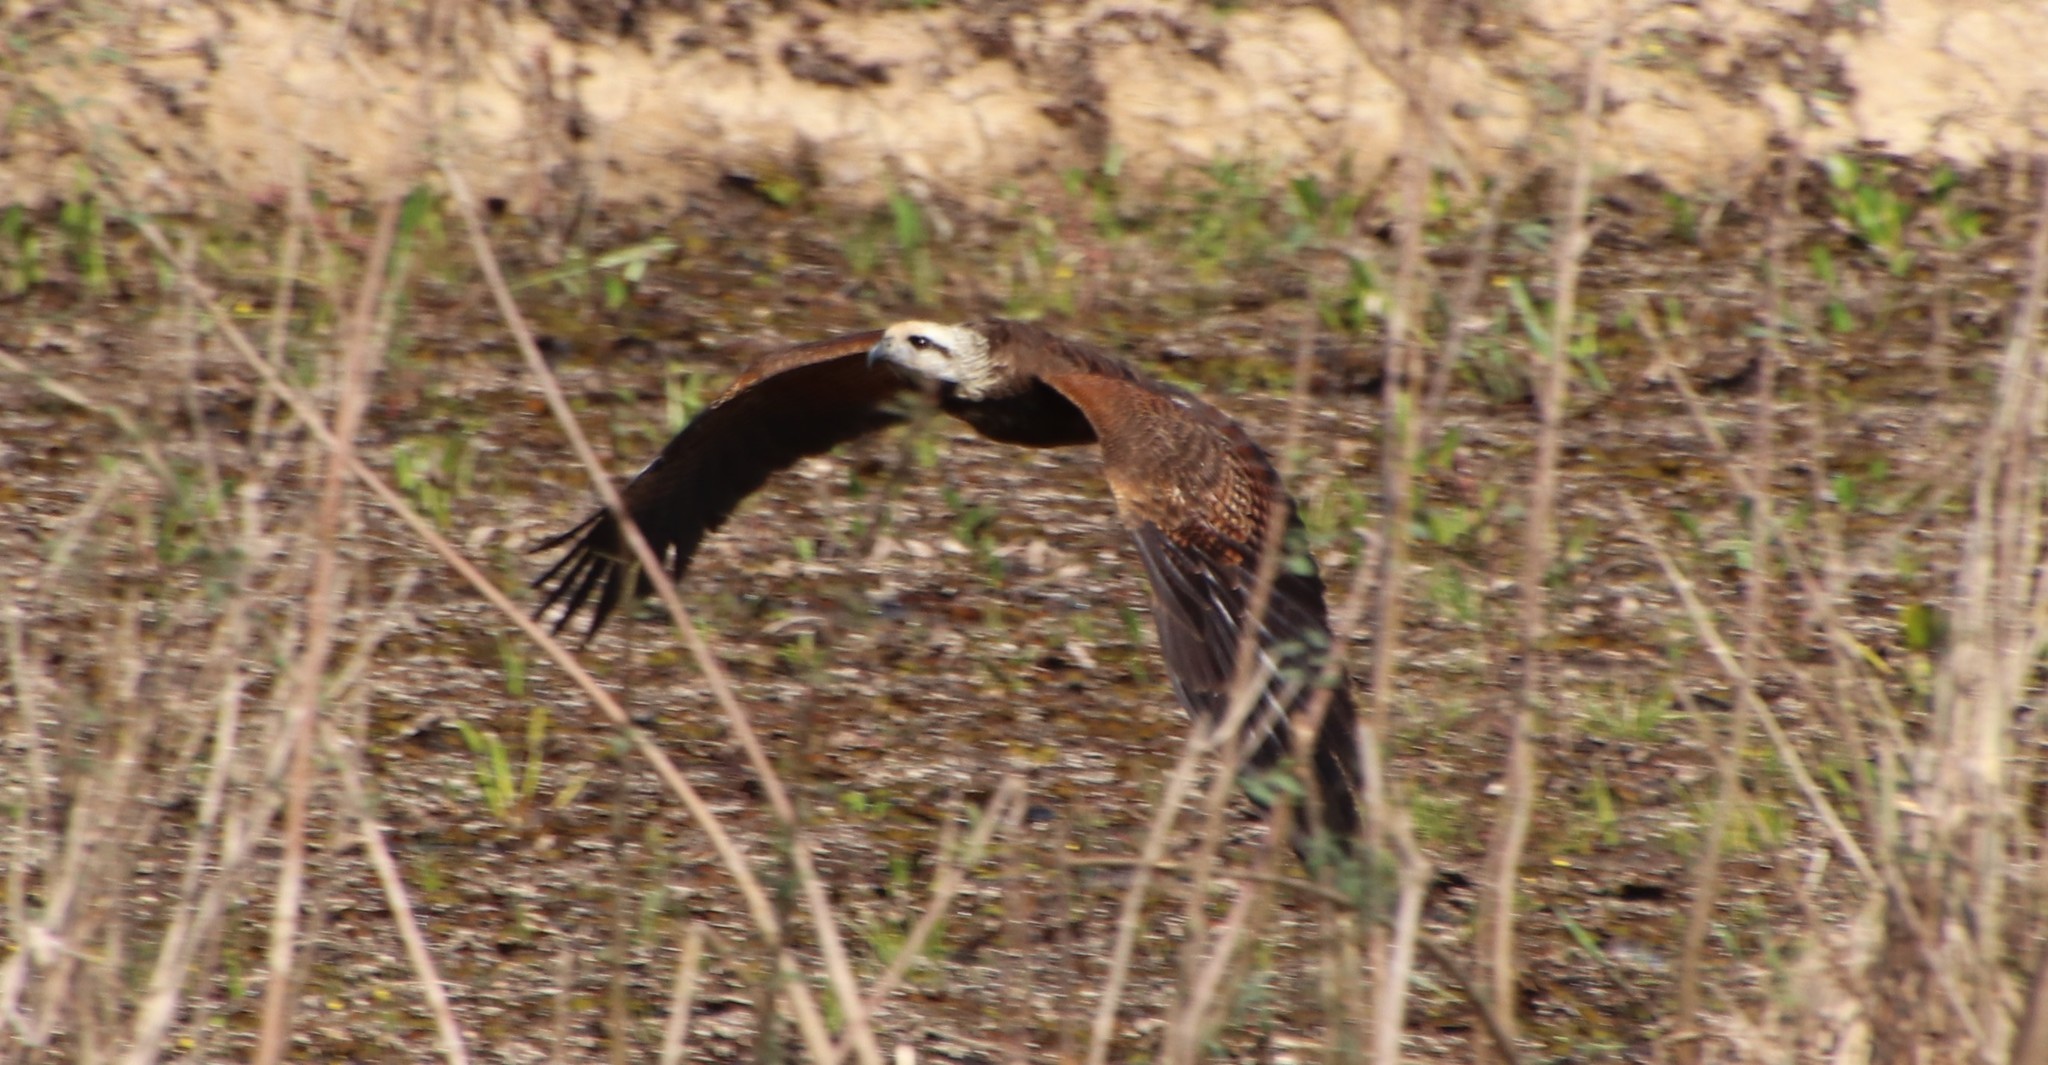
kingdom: Animalia
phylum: Chordata
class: Aves
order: Accipitriformes
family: Accipitridae
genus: Busarellus
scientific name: Busarellus nigricollis
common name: Black-collared hawk
